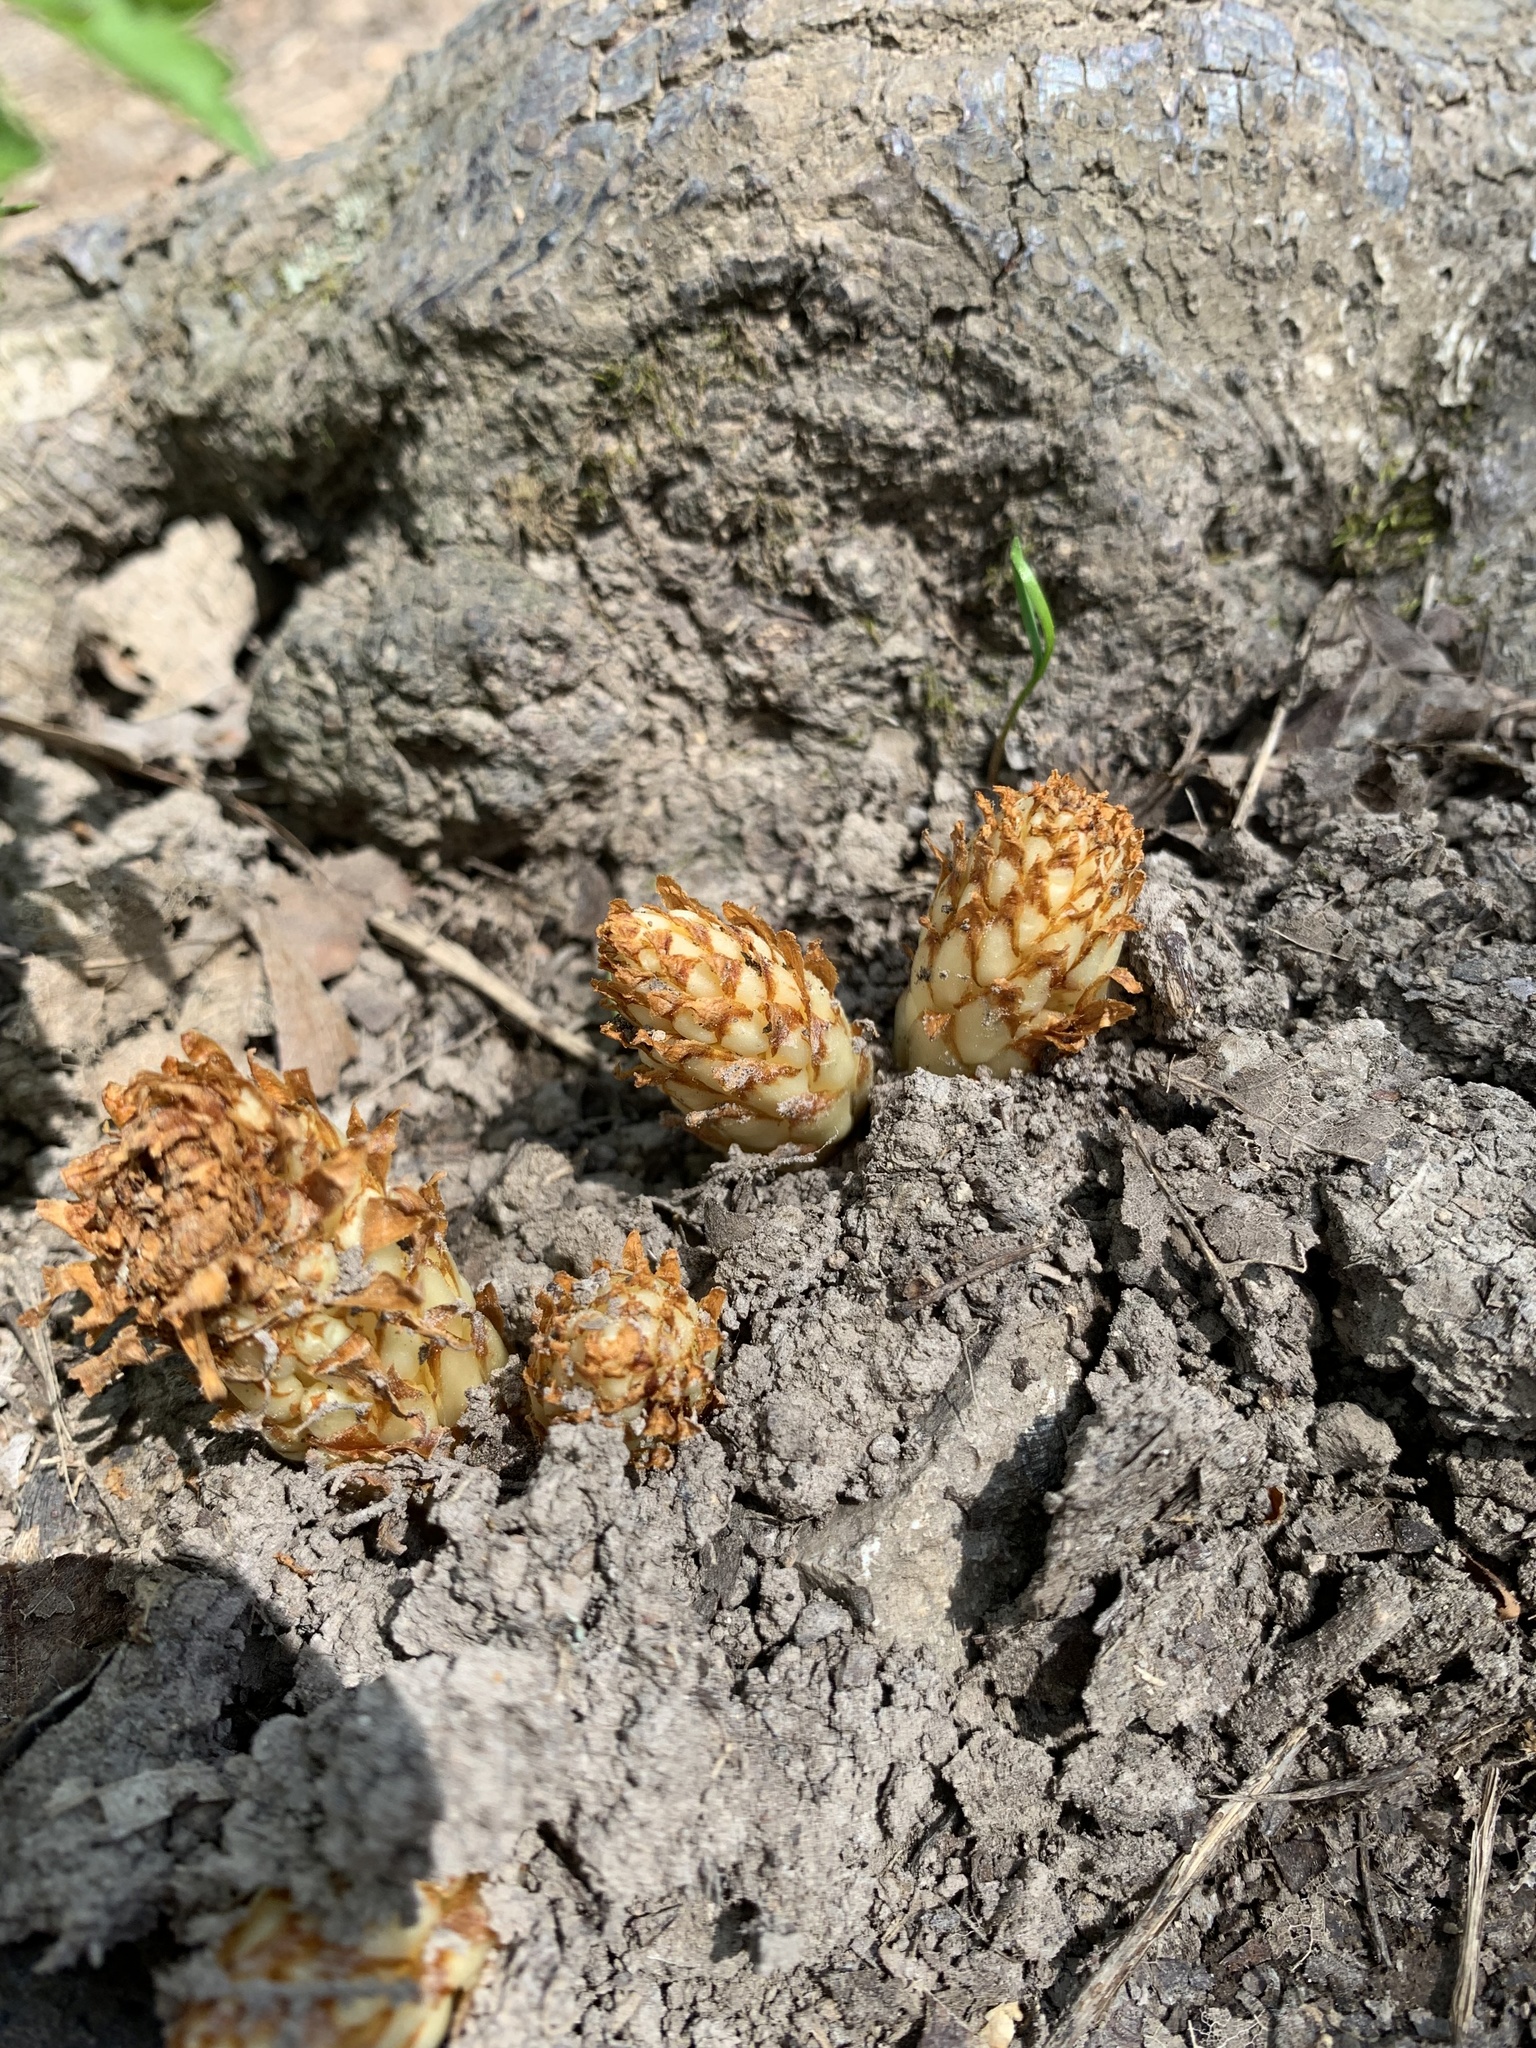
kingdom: Plantae
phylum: Tracheophyta
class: Magnoliopsida
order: Lamiales
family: Orobanchaceae
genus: Conopholis
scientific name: Conopholis americana
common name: American cancer-root
